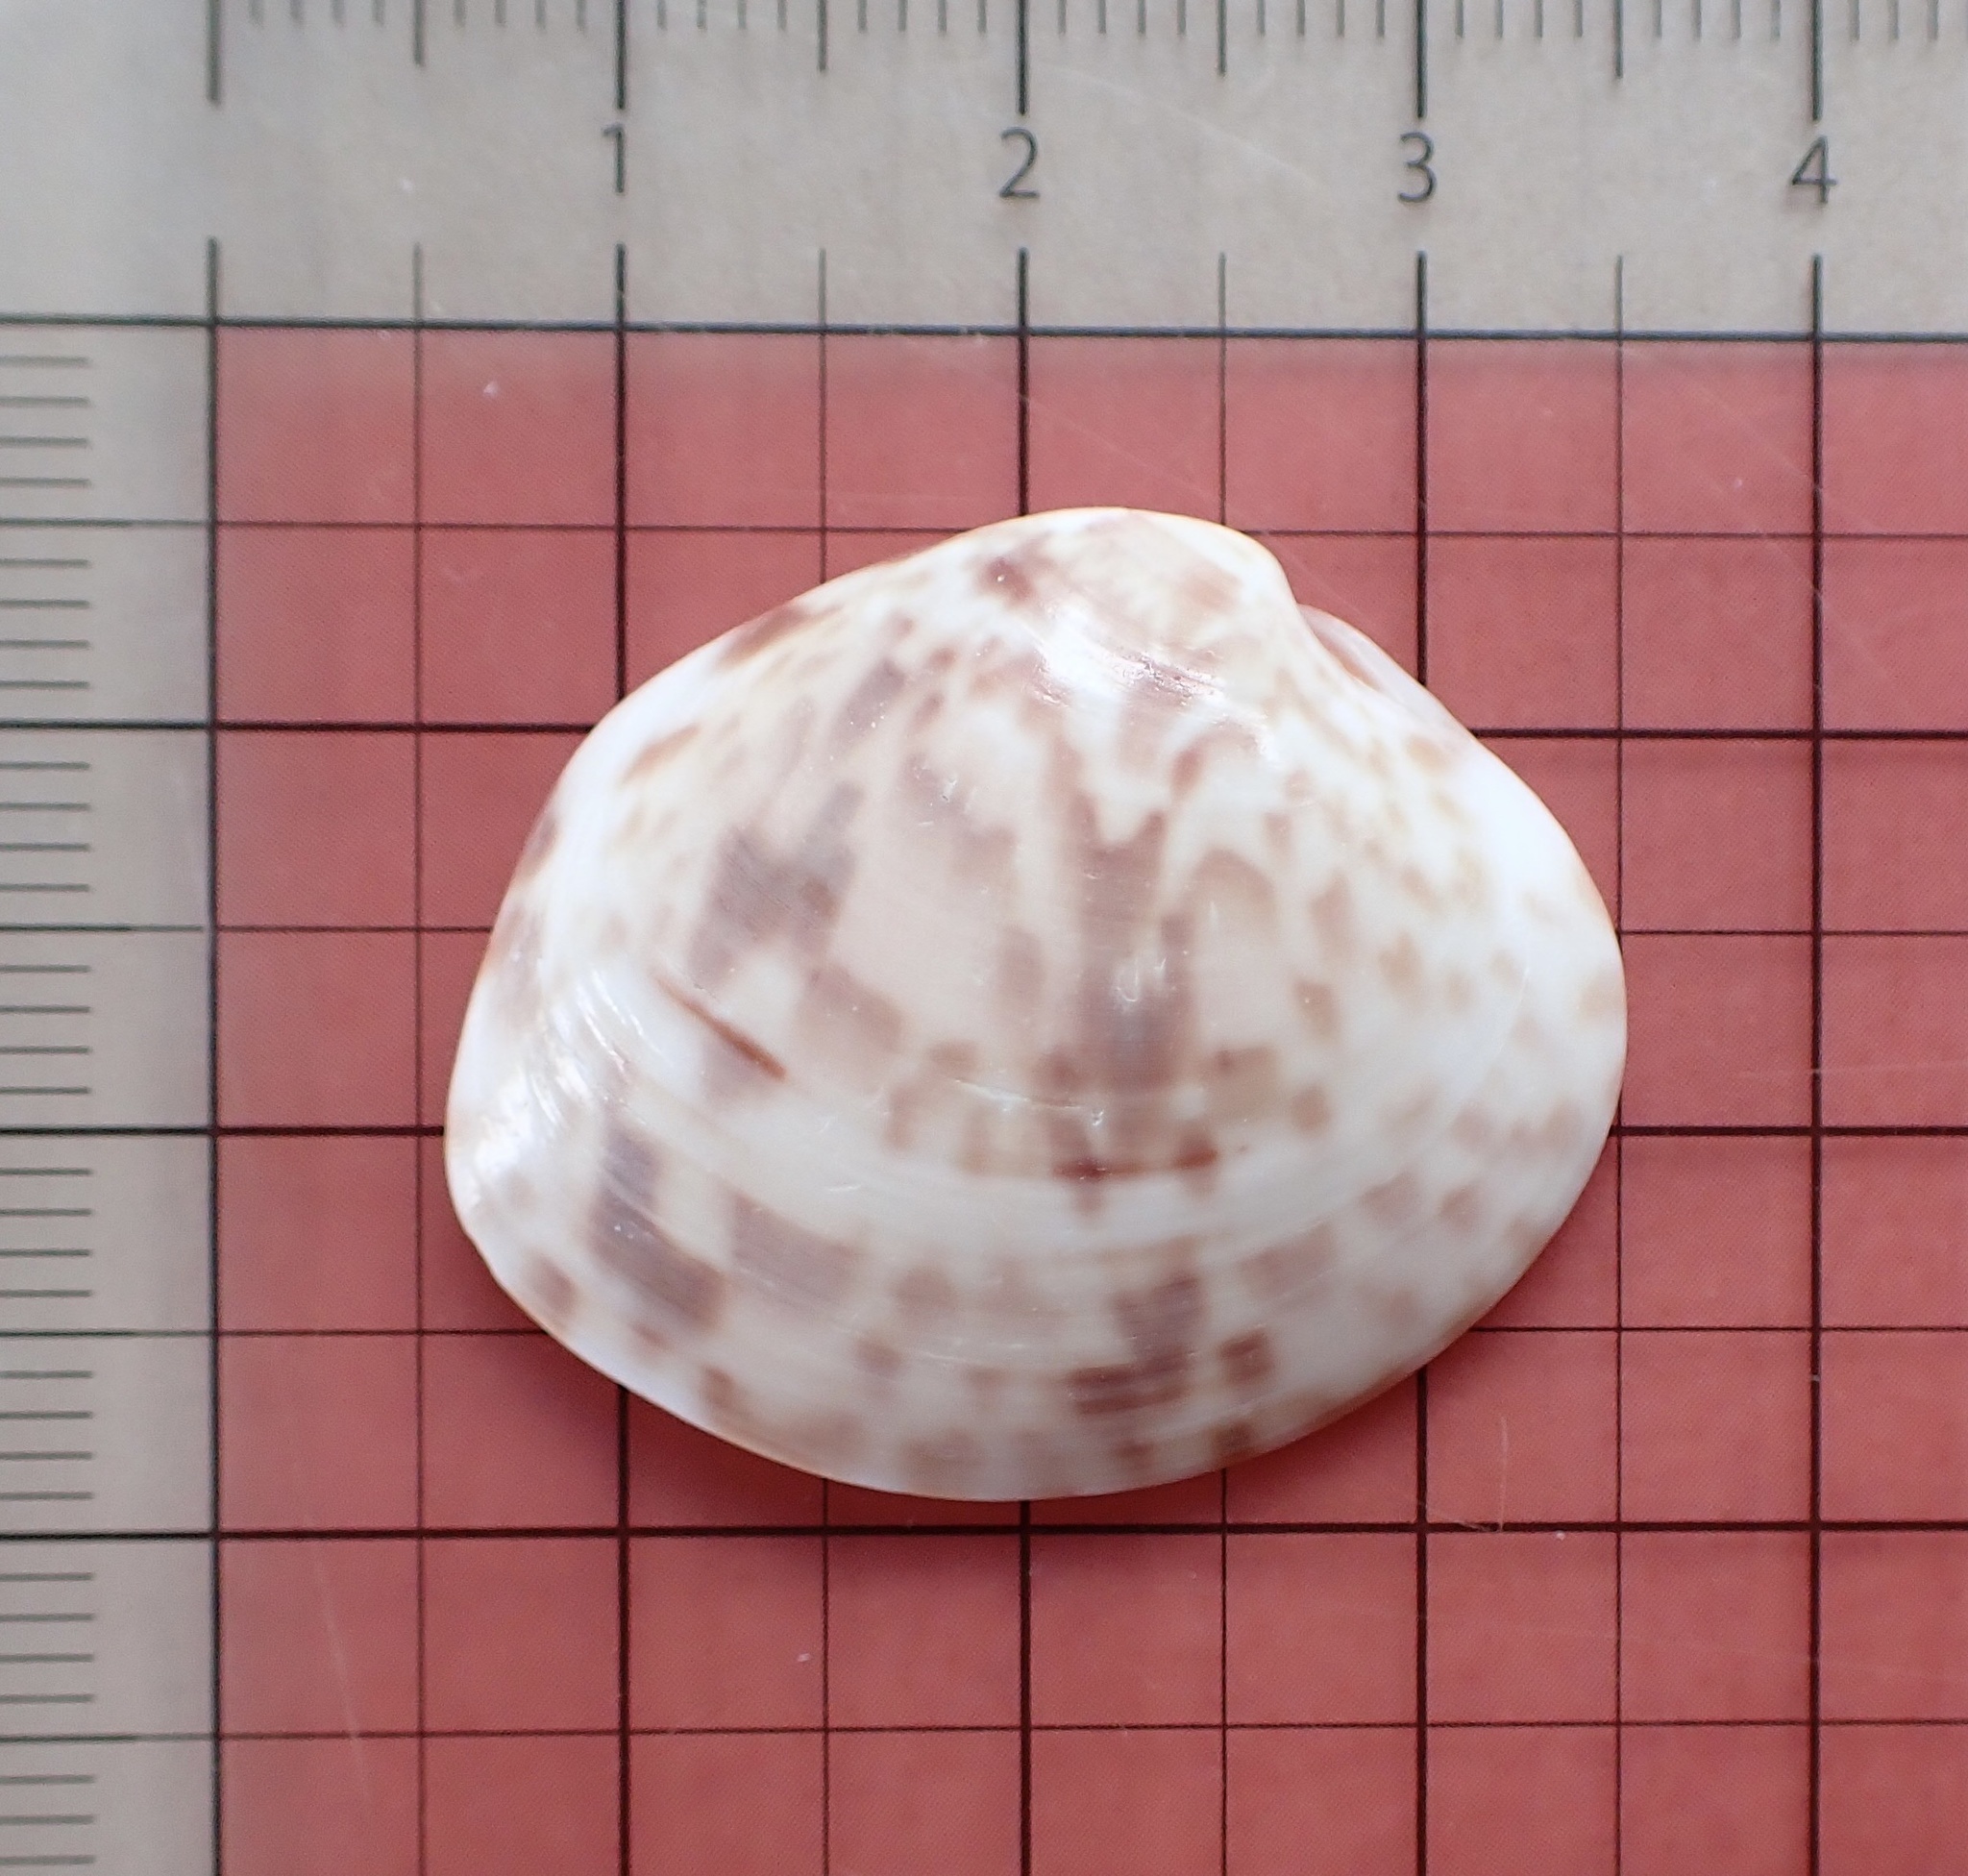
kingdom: Animalia
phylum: Mollusca
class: Bivalvia
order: Venerida
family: Veneridae
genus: Megapitaria
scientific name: Megapitaria maculata
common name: Calico clam
